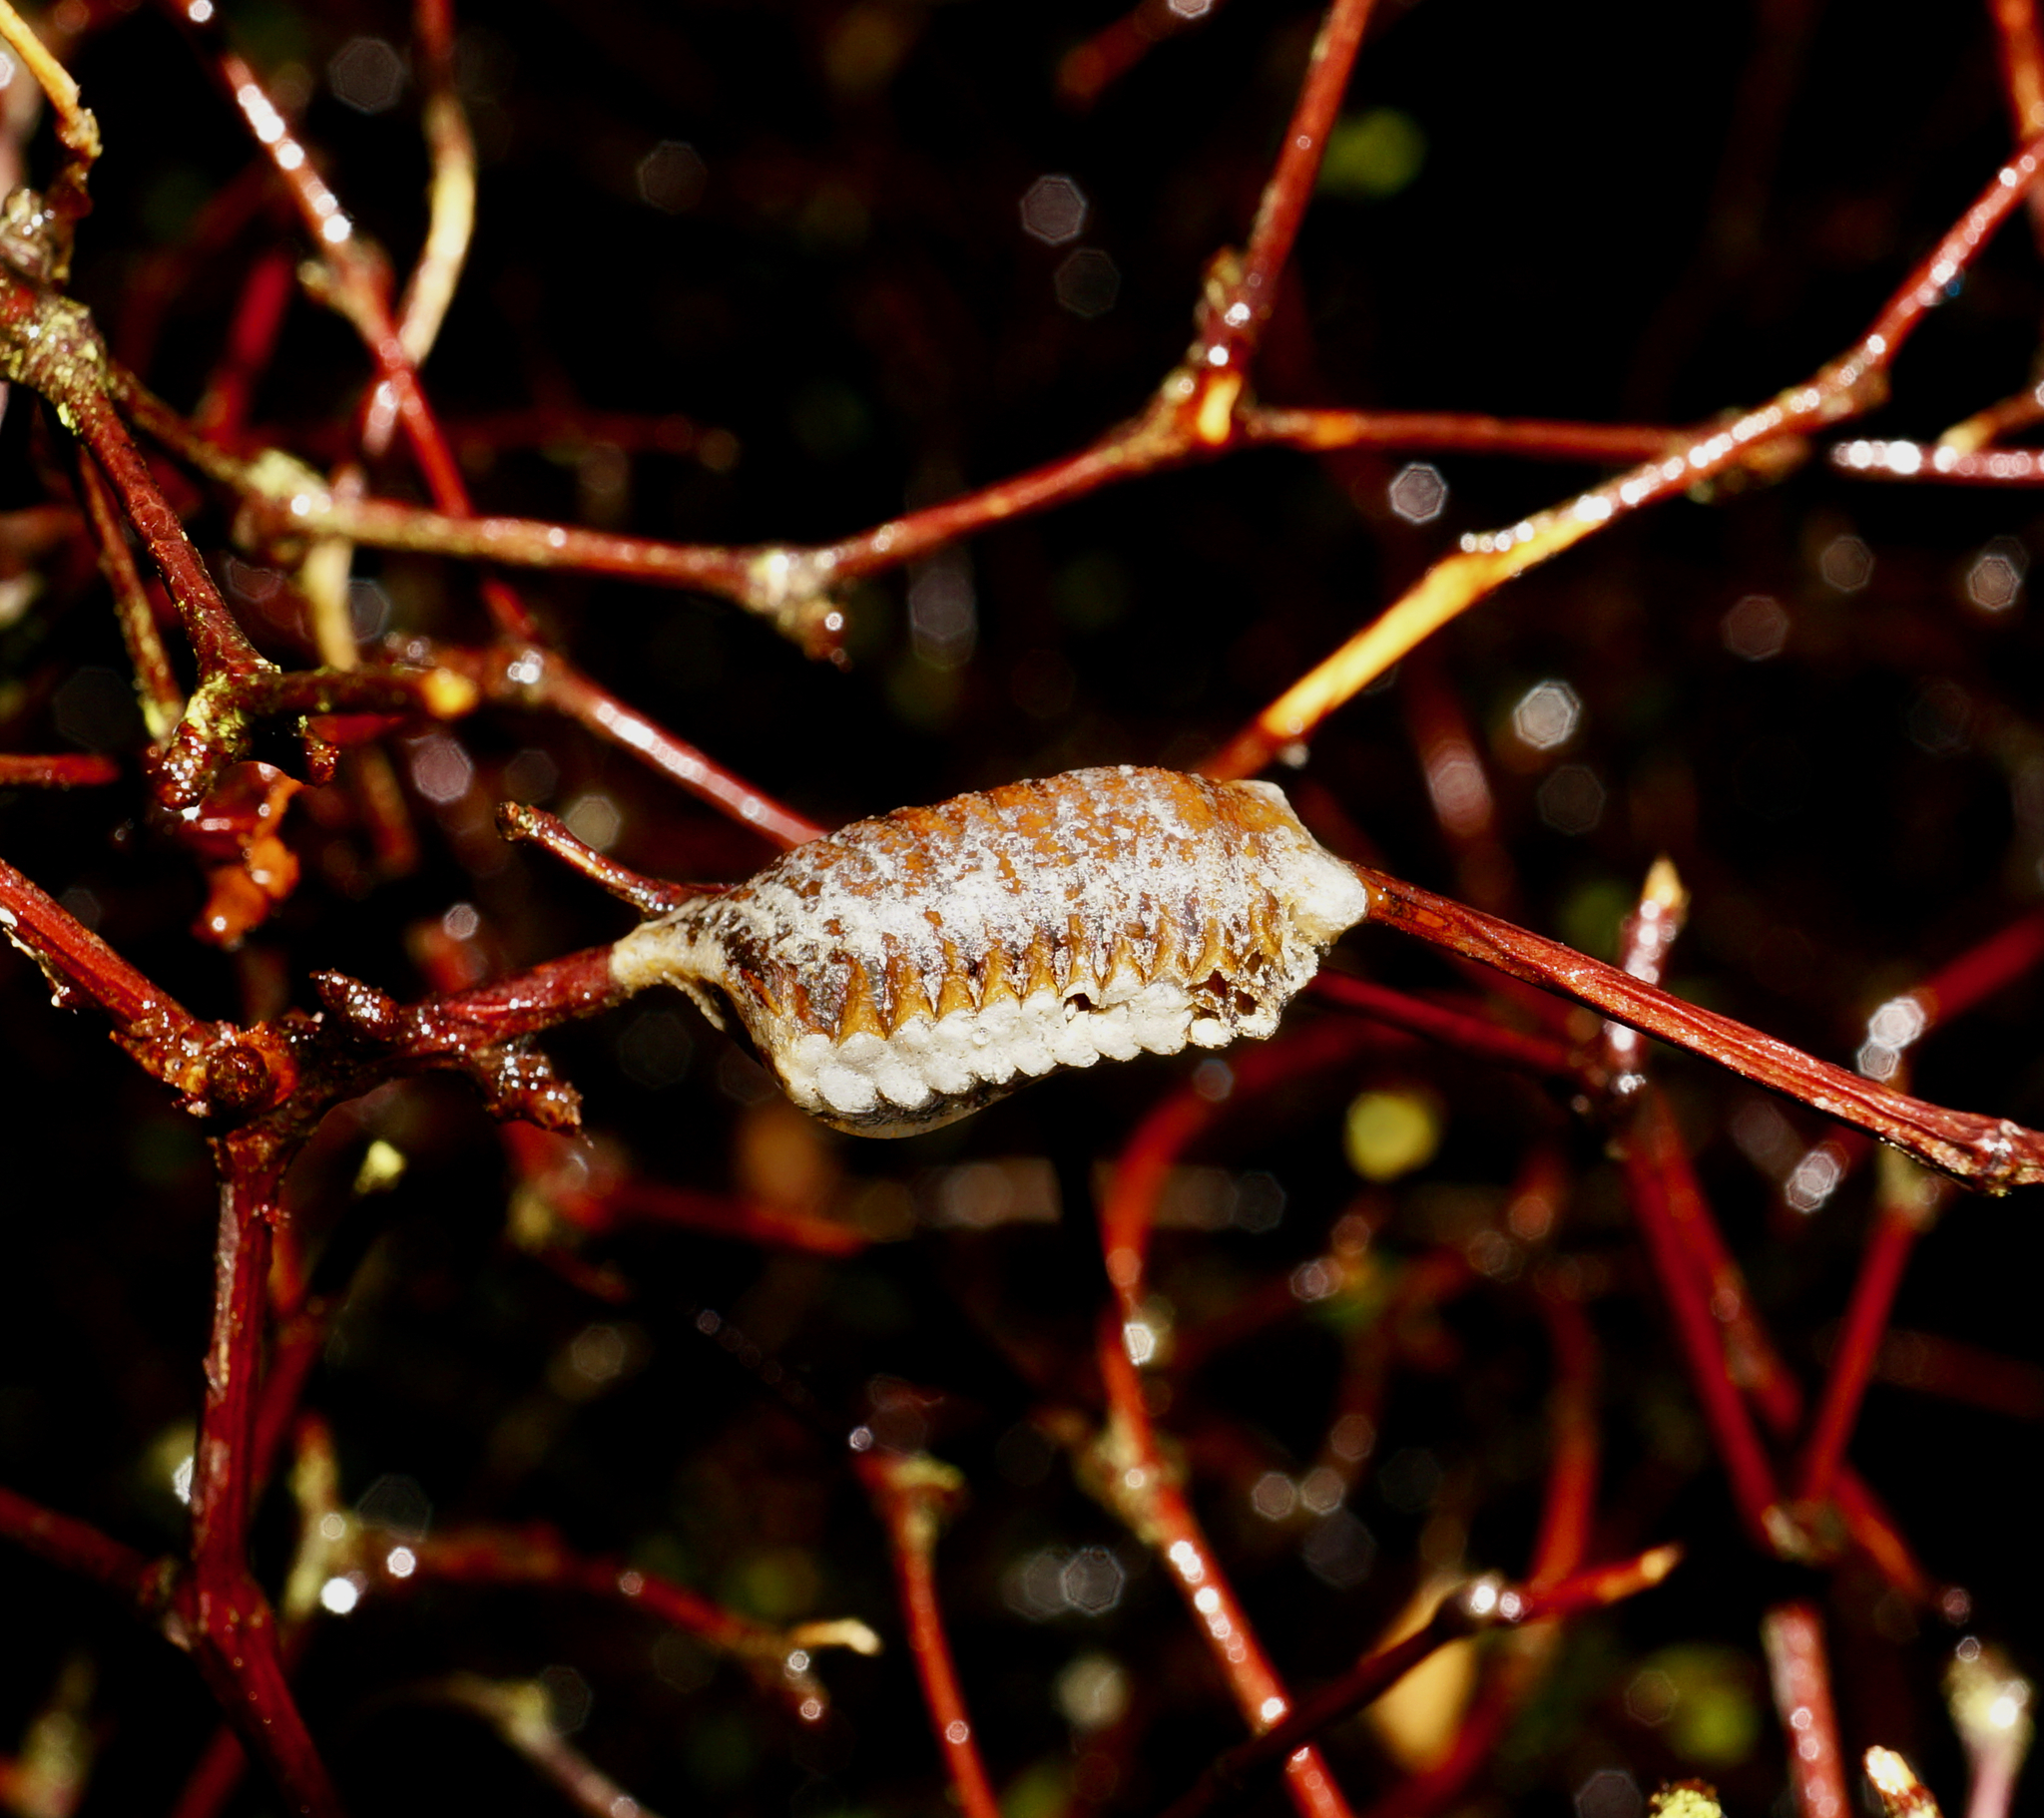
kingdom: Animalia
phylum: Arthropoda
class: Insecta
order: Mantodea
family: Mantidae
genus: Orthodera
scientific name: Orthodera novaezealandiae
